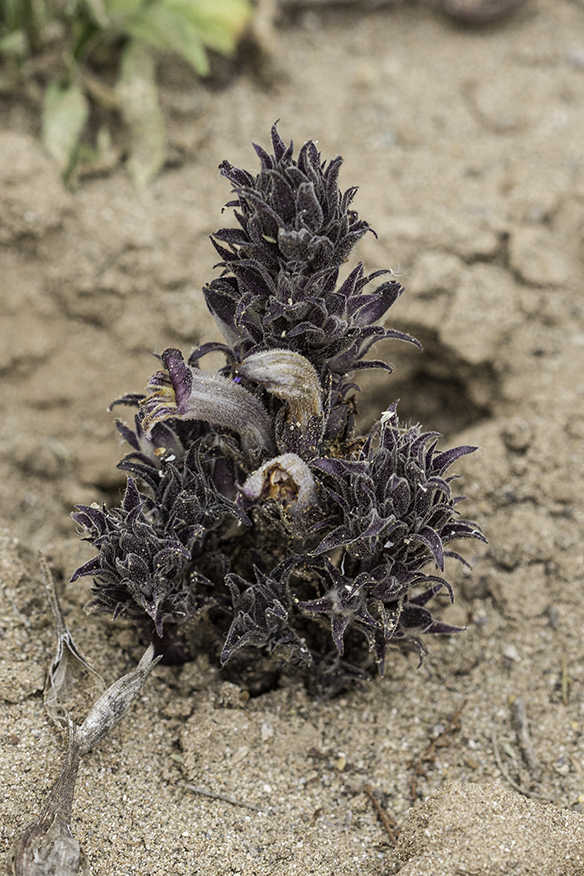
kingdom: Plantae
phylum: Tracheophyta
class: Magnoliopsida
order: Lamiales
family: Orobanchaceae
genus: Aphyllon
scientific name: Aphyllon cooperi
